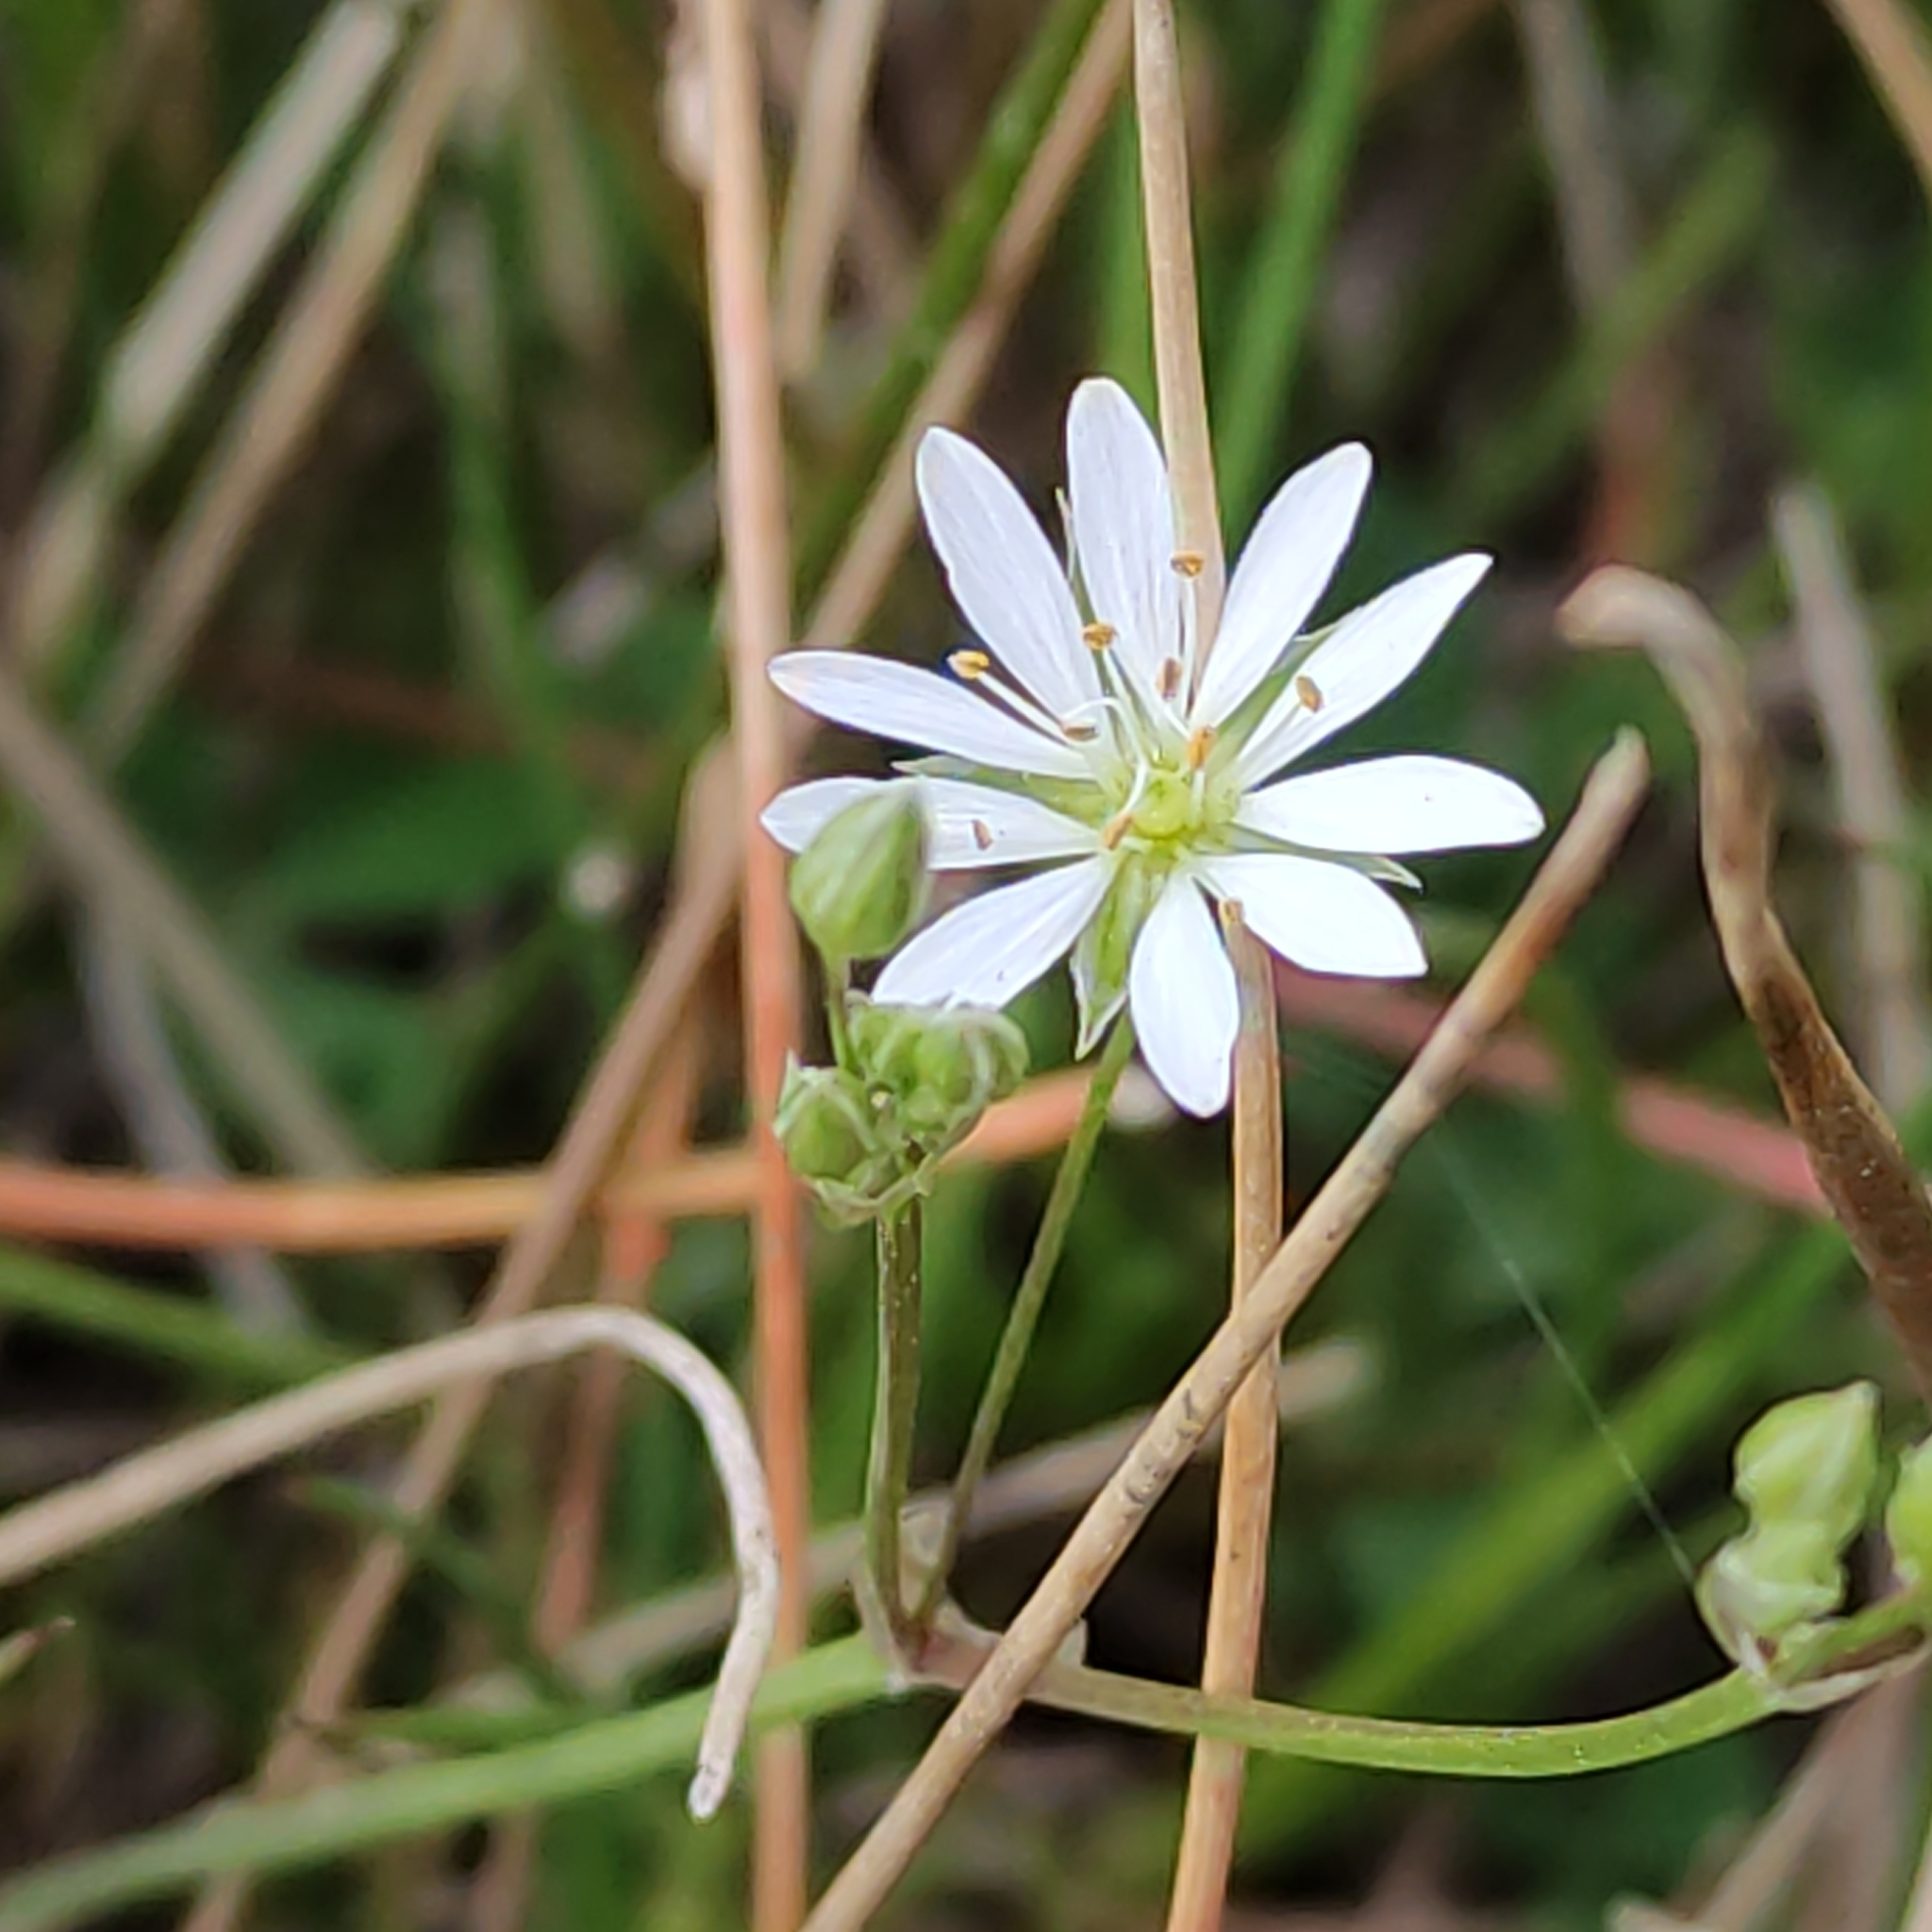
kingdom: Plantae
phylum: Tracheophyta
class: Magnoliopsida
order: Caryophyllales
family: Caryophyllaceae
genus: Stellaria
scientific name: Stellaria graminea
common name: Grass-like starwort
